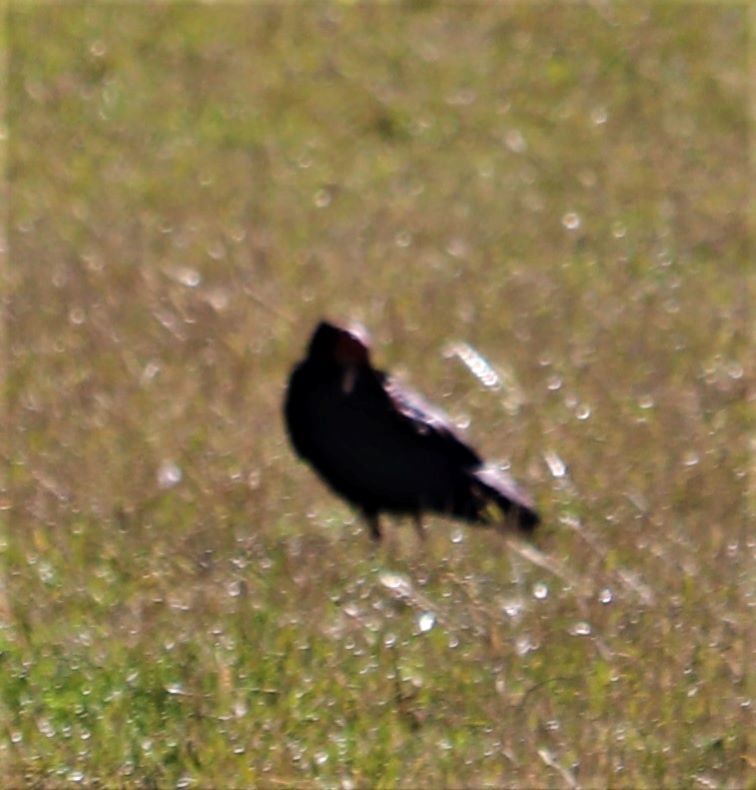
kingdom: Animalia
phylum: Chordata
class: Aves
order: Pelecaniformes
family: Threskiornithidae
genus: Geronticus
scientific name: Geronticus calvus
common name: Southern bald ibis
